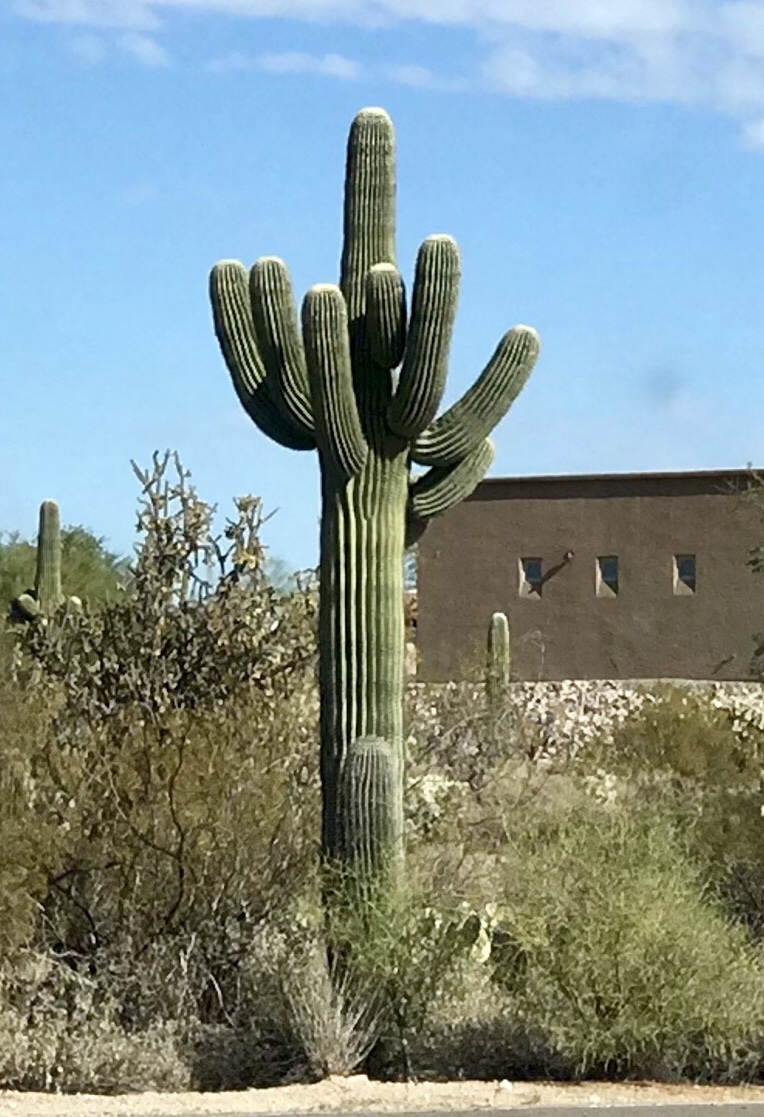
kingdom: Plantae
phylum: Tracheophyta
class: Magnoliopsida
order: Caryophyllales
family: Cactaceae
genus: Carnegiea
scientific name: Carnegiea gigantea
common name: Saguaro
